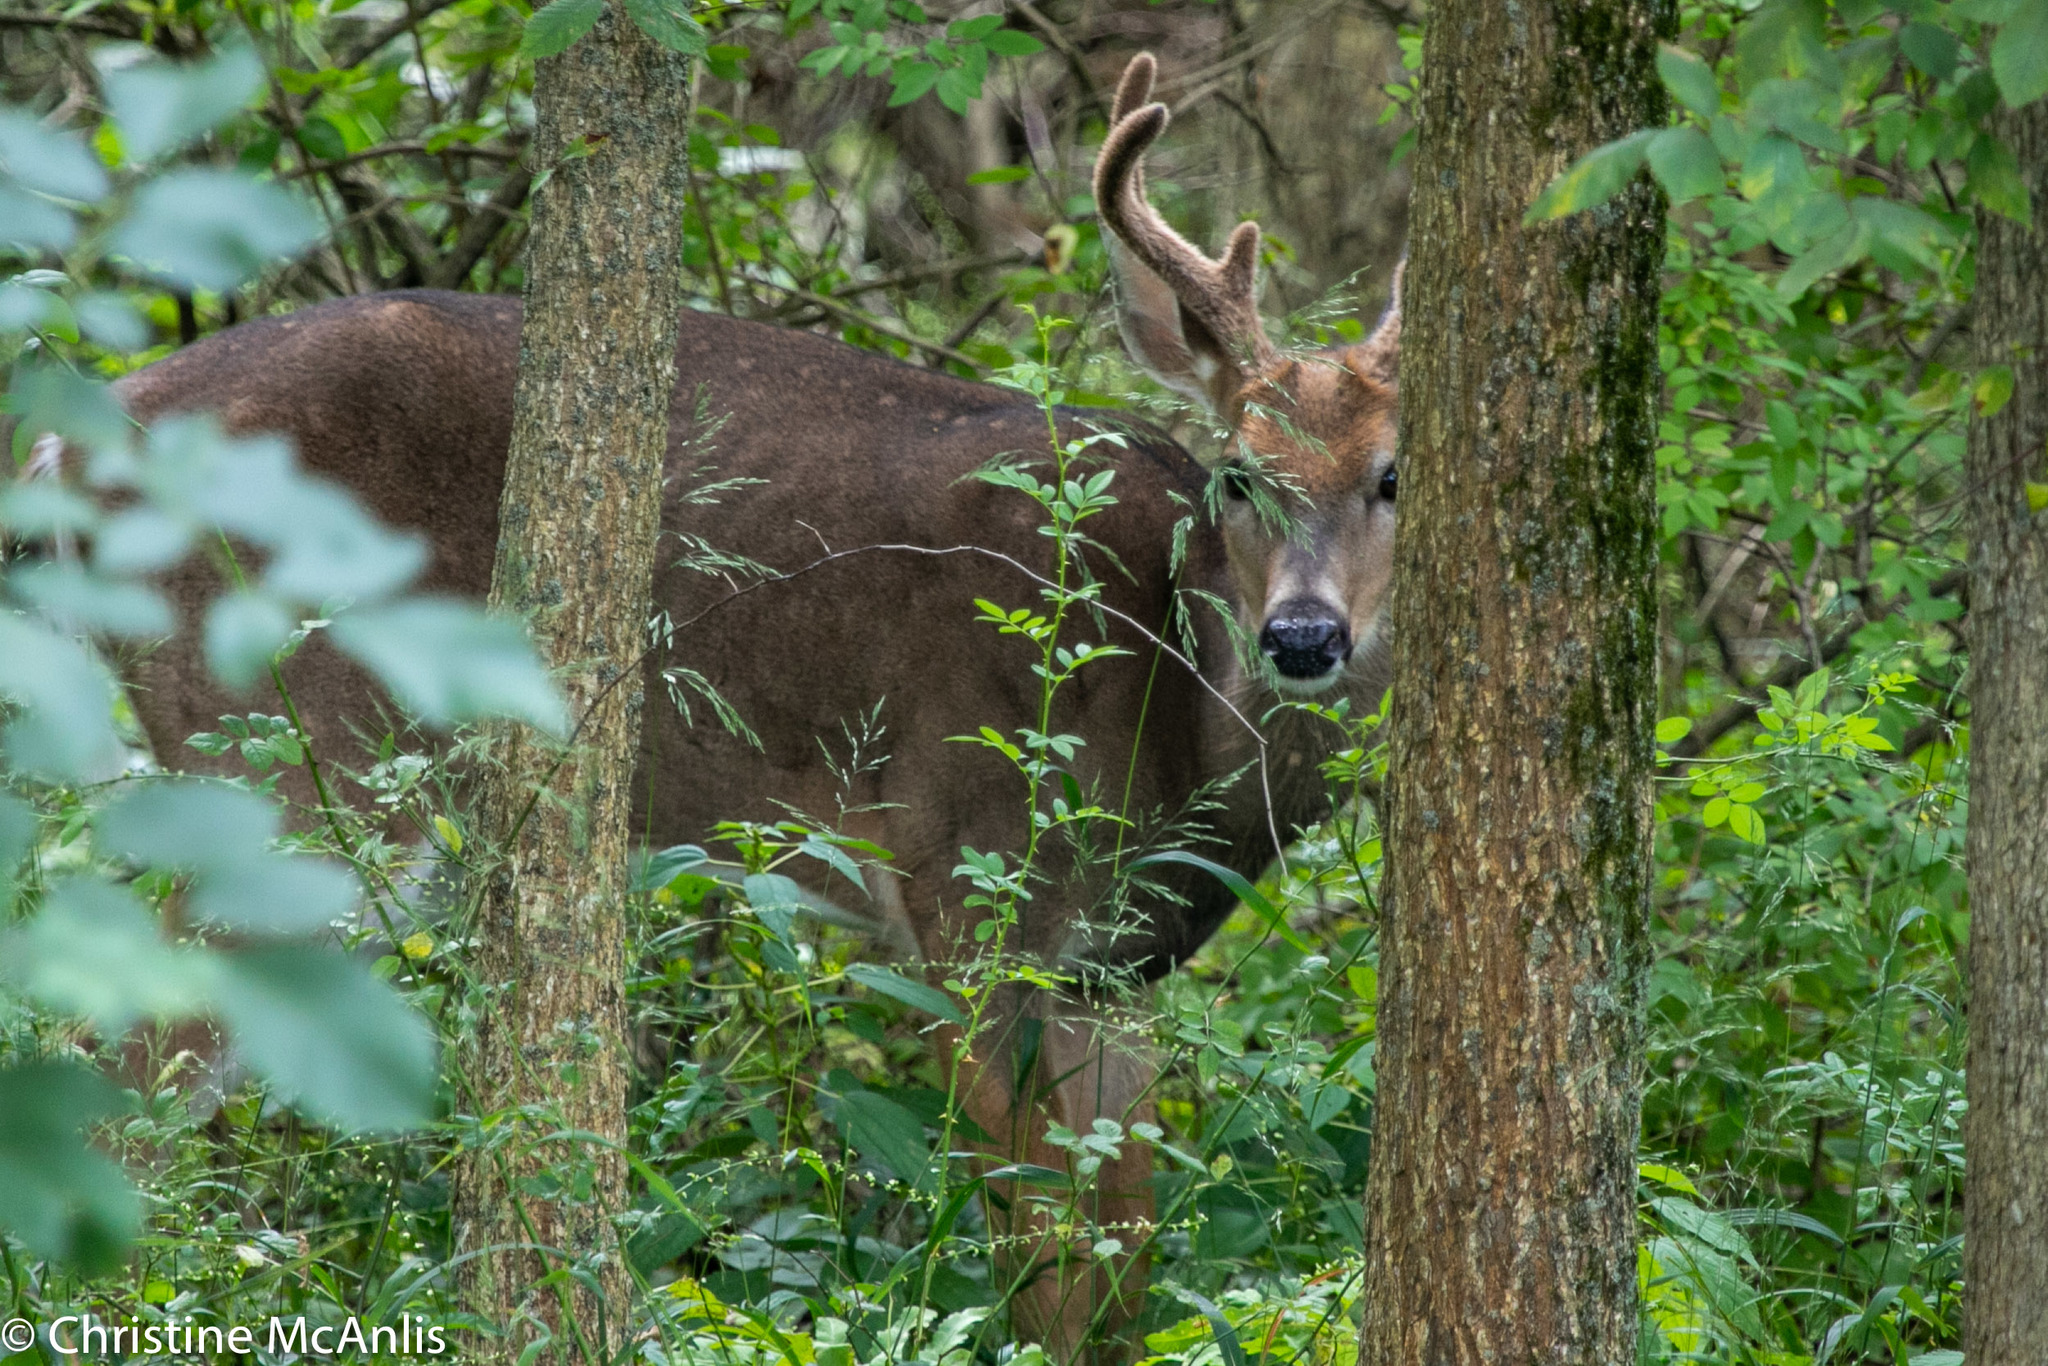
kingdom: Animalia
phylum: Chordata
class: Mammalia
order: Artiodactyla
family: Cervidae
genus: Odocoileus
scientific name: Odocoileus virginianus
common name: White-tailed deer
